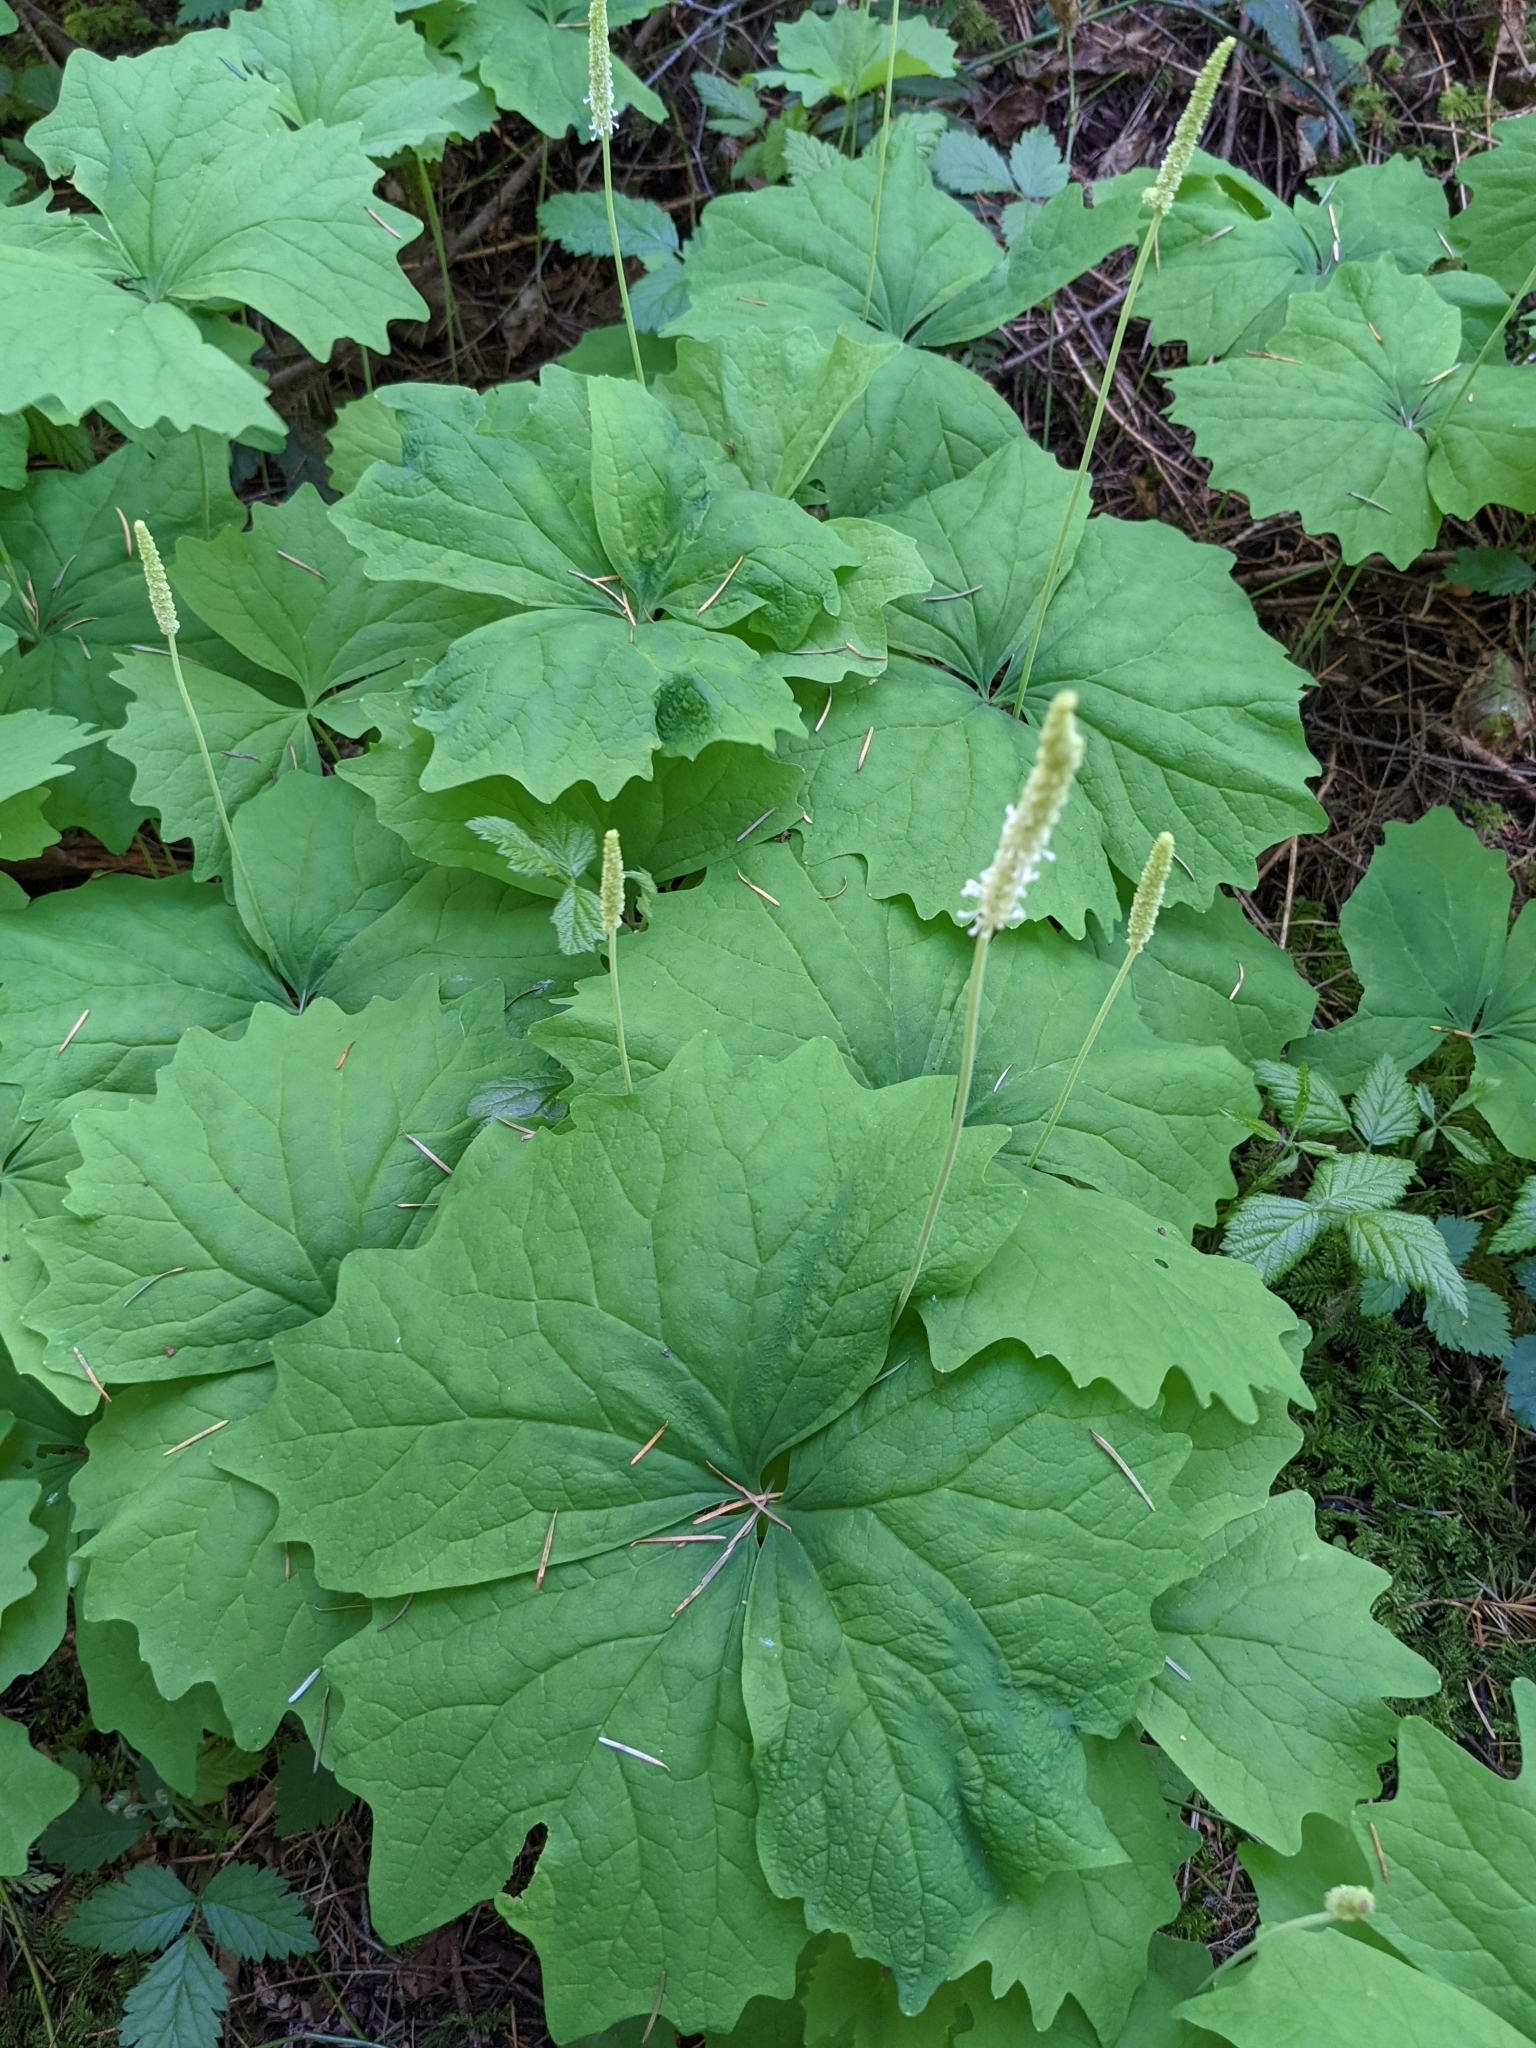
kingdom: Plantae
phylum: Tracheophyta
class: Magnoliopsida
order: Ranunculales
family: Berberidaceae
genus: Achlys
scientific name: Achlys triphylla
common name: Vanilla-leaf
